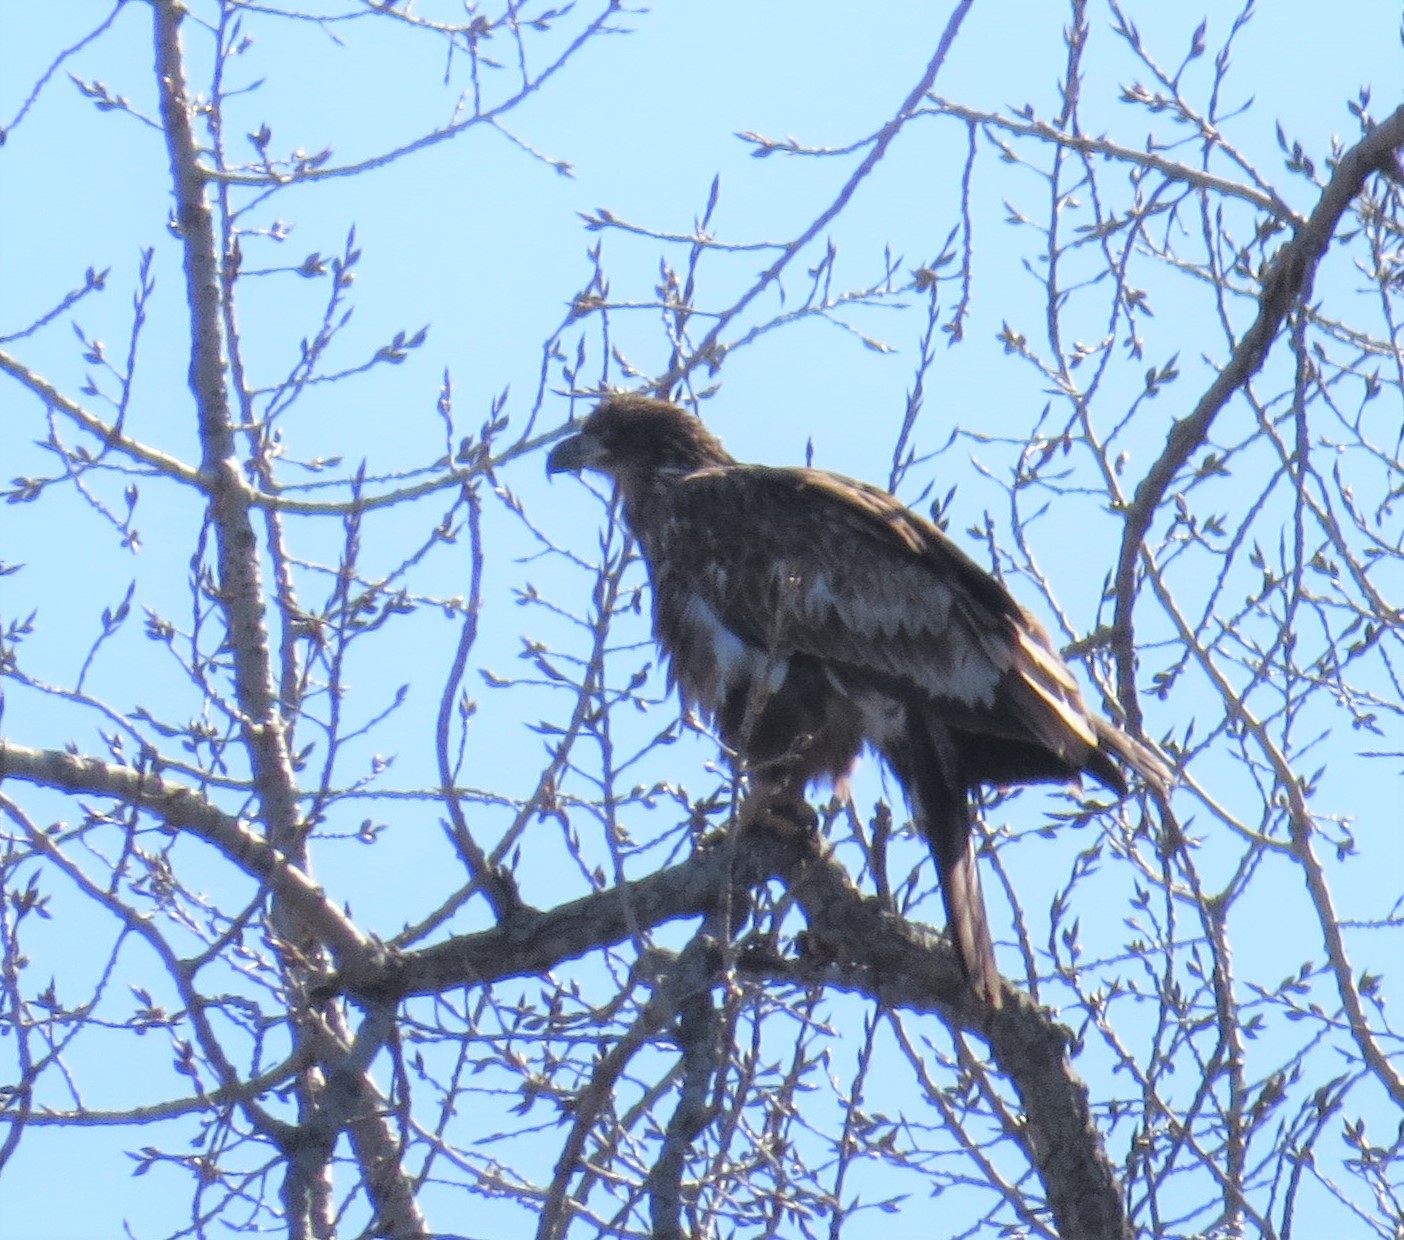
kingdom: Animalia
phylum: Chordata
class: Aves
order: Accipitriformes
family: Accipitridae
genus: Haliaeetus
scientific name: Haliaeetus leucocephalus
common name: Bald eagle
